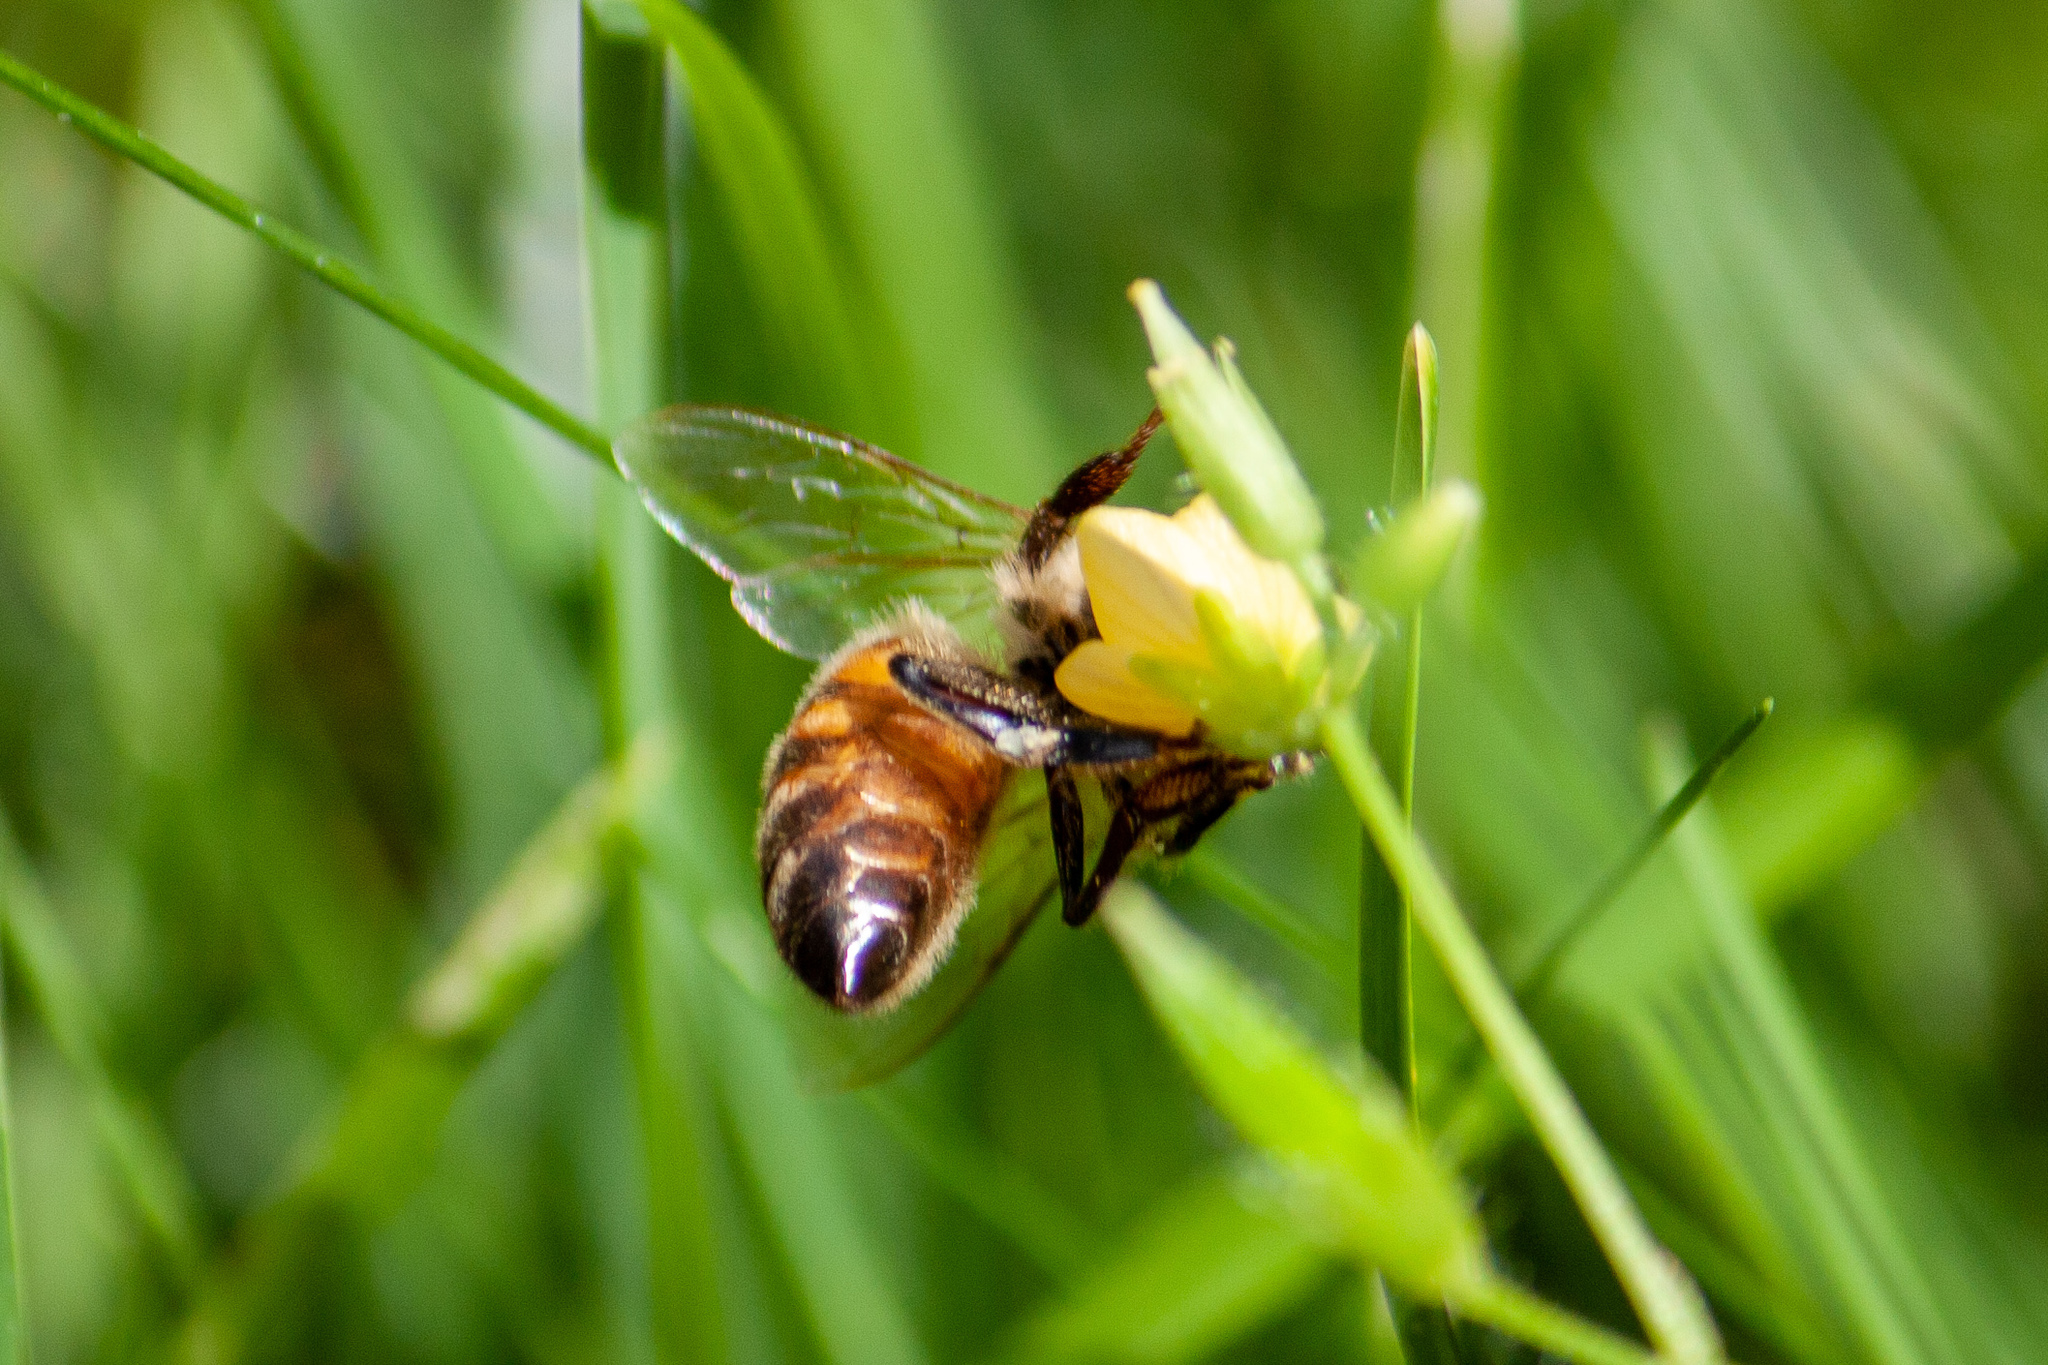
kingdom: Animalia
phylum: Arthropoda
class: Insecta
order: Hymenoptera
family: Apidae
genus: Apis
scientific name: Apis mellifera
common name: Honey bee
